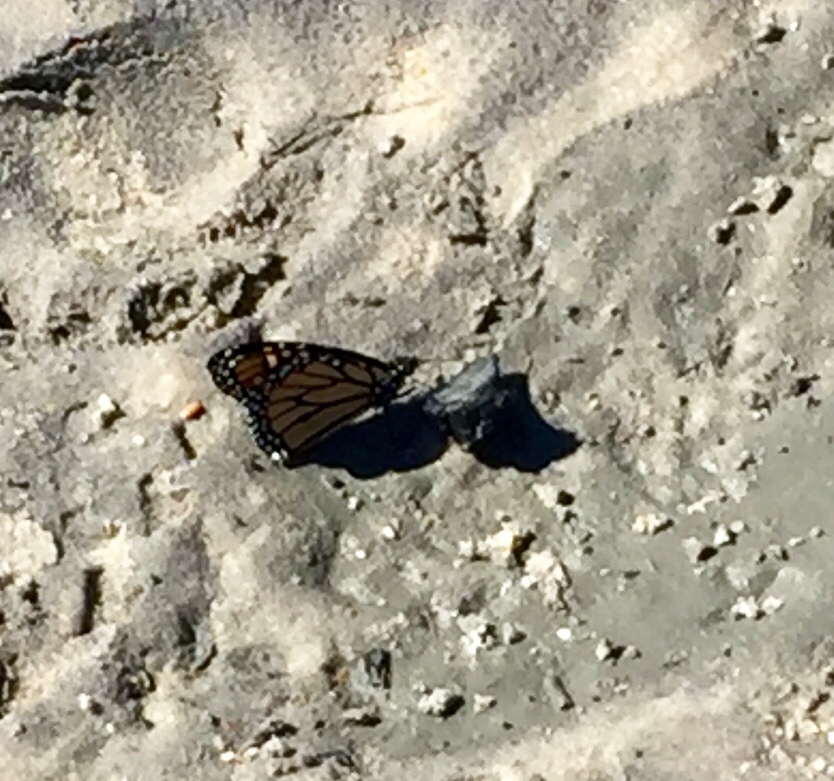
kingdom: Animalia
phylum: Arthropoda
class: Insecta
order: Lepidoptera
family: Nymphalidae
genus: Danaus
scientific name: Danaus plexippus
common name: Monarch
